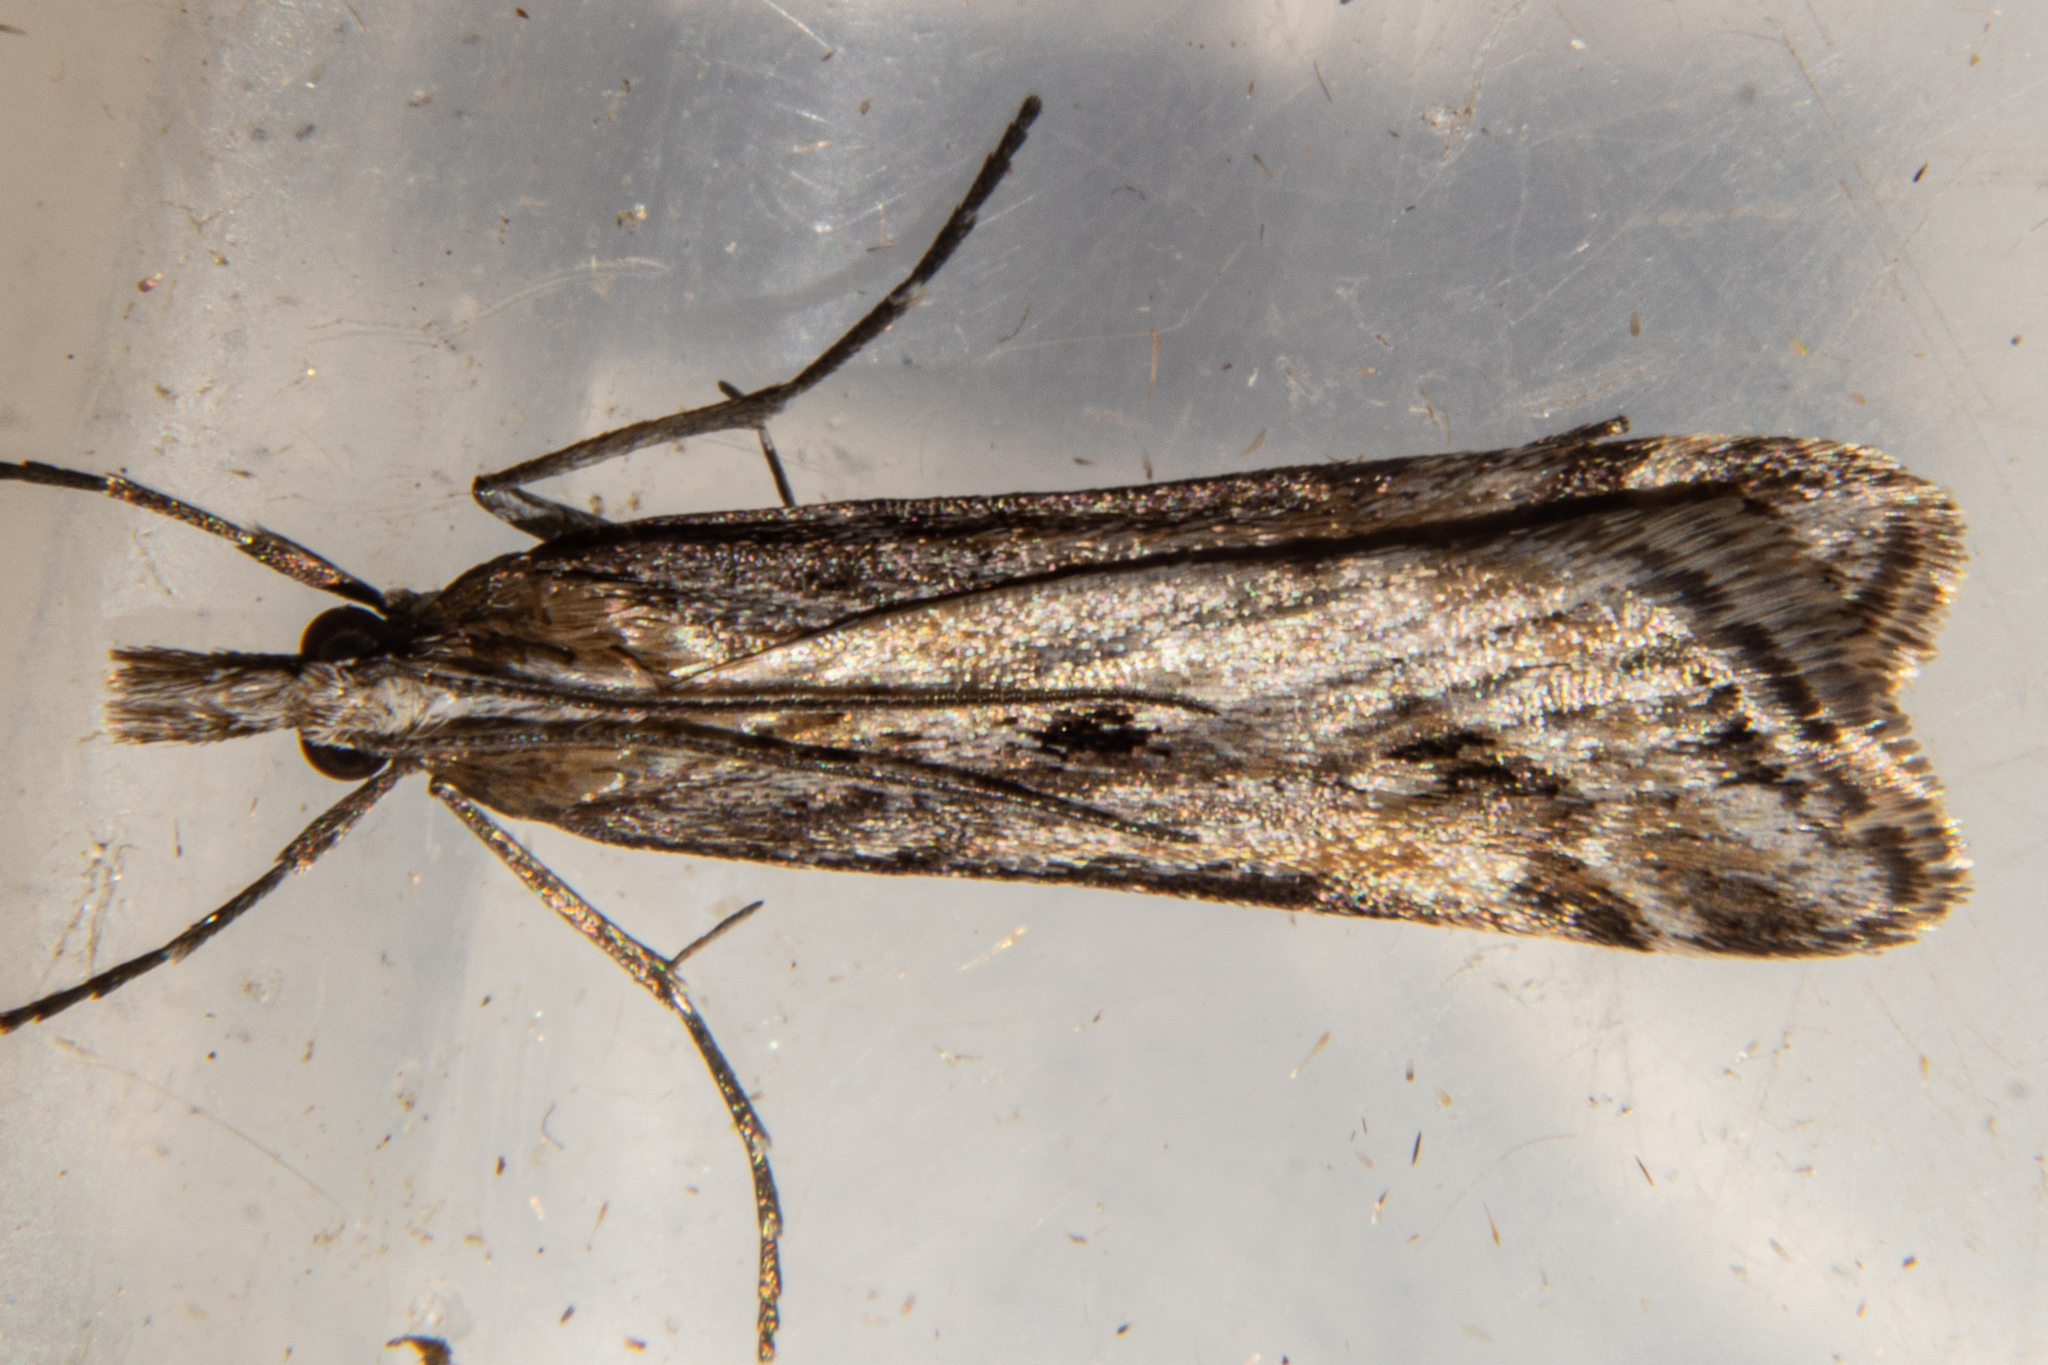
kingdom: Animalia
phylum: Arthropoda
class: Insecta
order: Lepidoptera
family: Crambidae
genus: Scoparia
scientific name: Scoparia exilis
